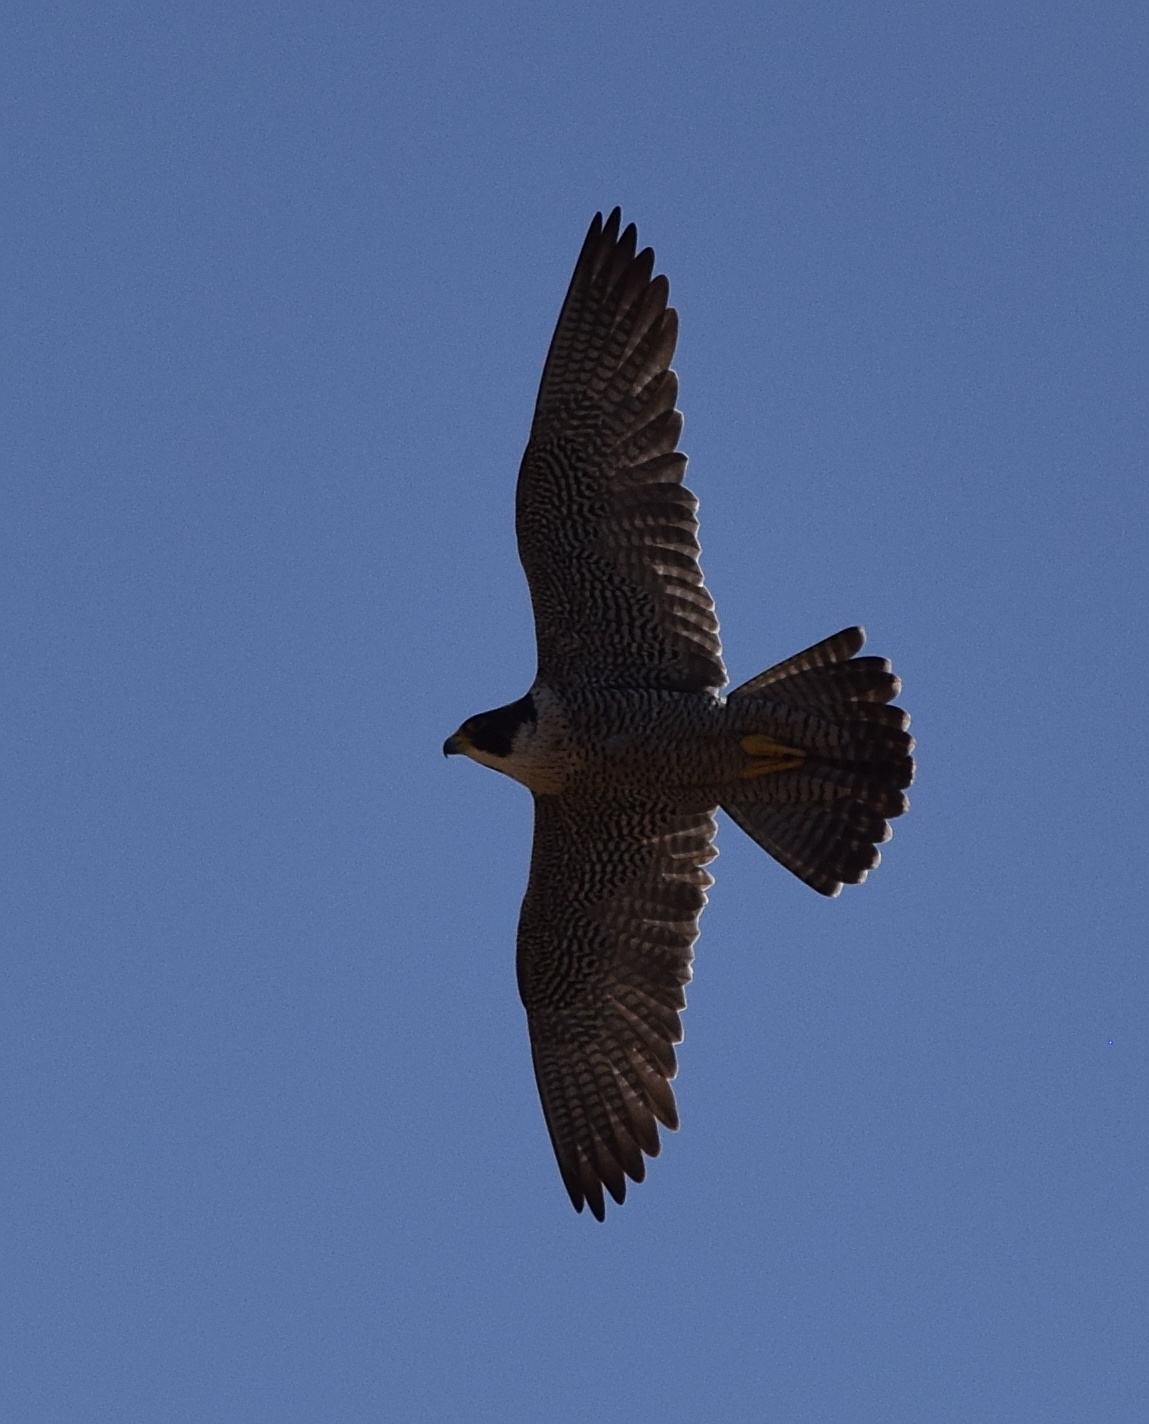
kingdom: Animalia
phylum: Chordata
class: Aves
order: Falconiformes
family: Falconidae
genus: Falco
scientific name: Falco peregrinus
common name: Peregrine falcon
